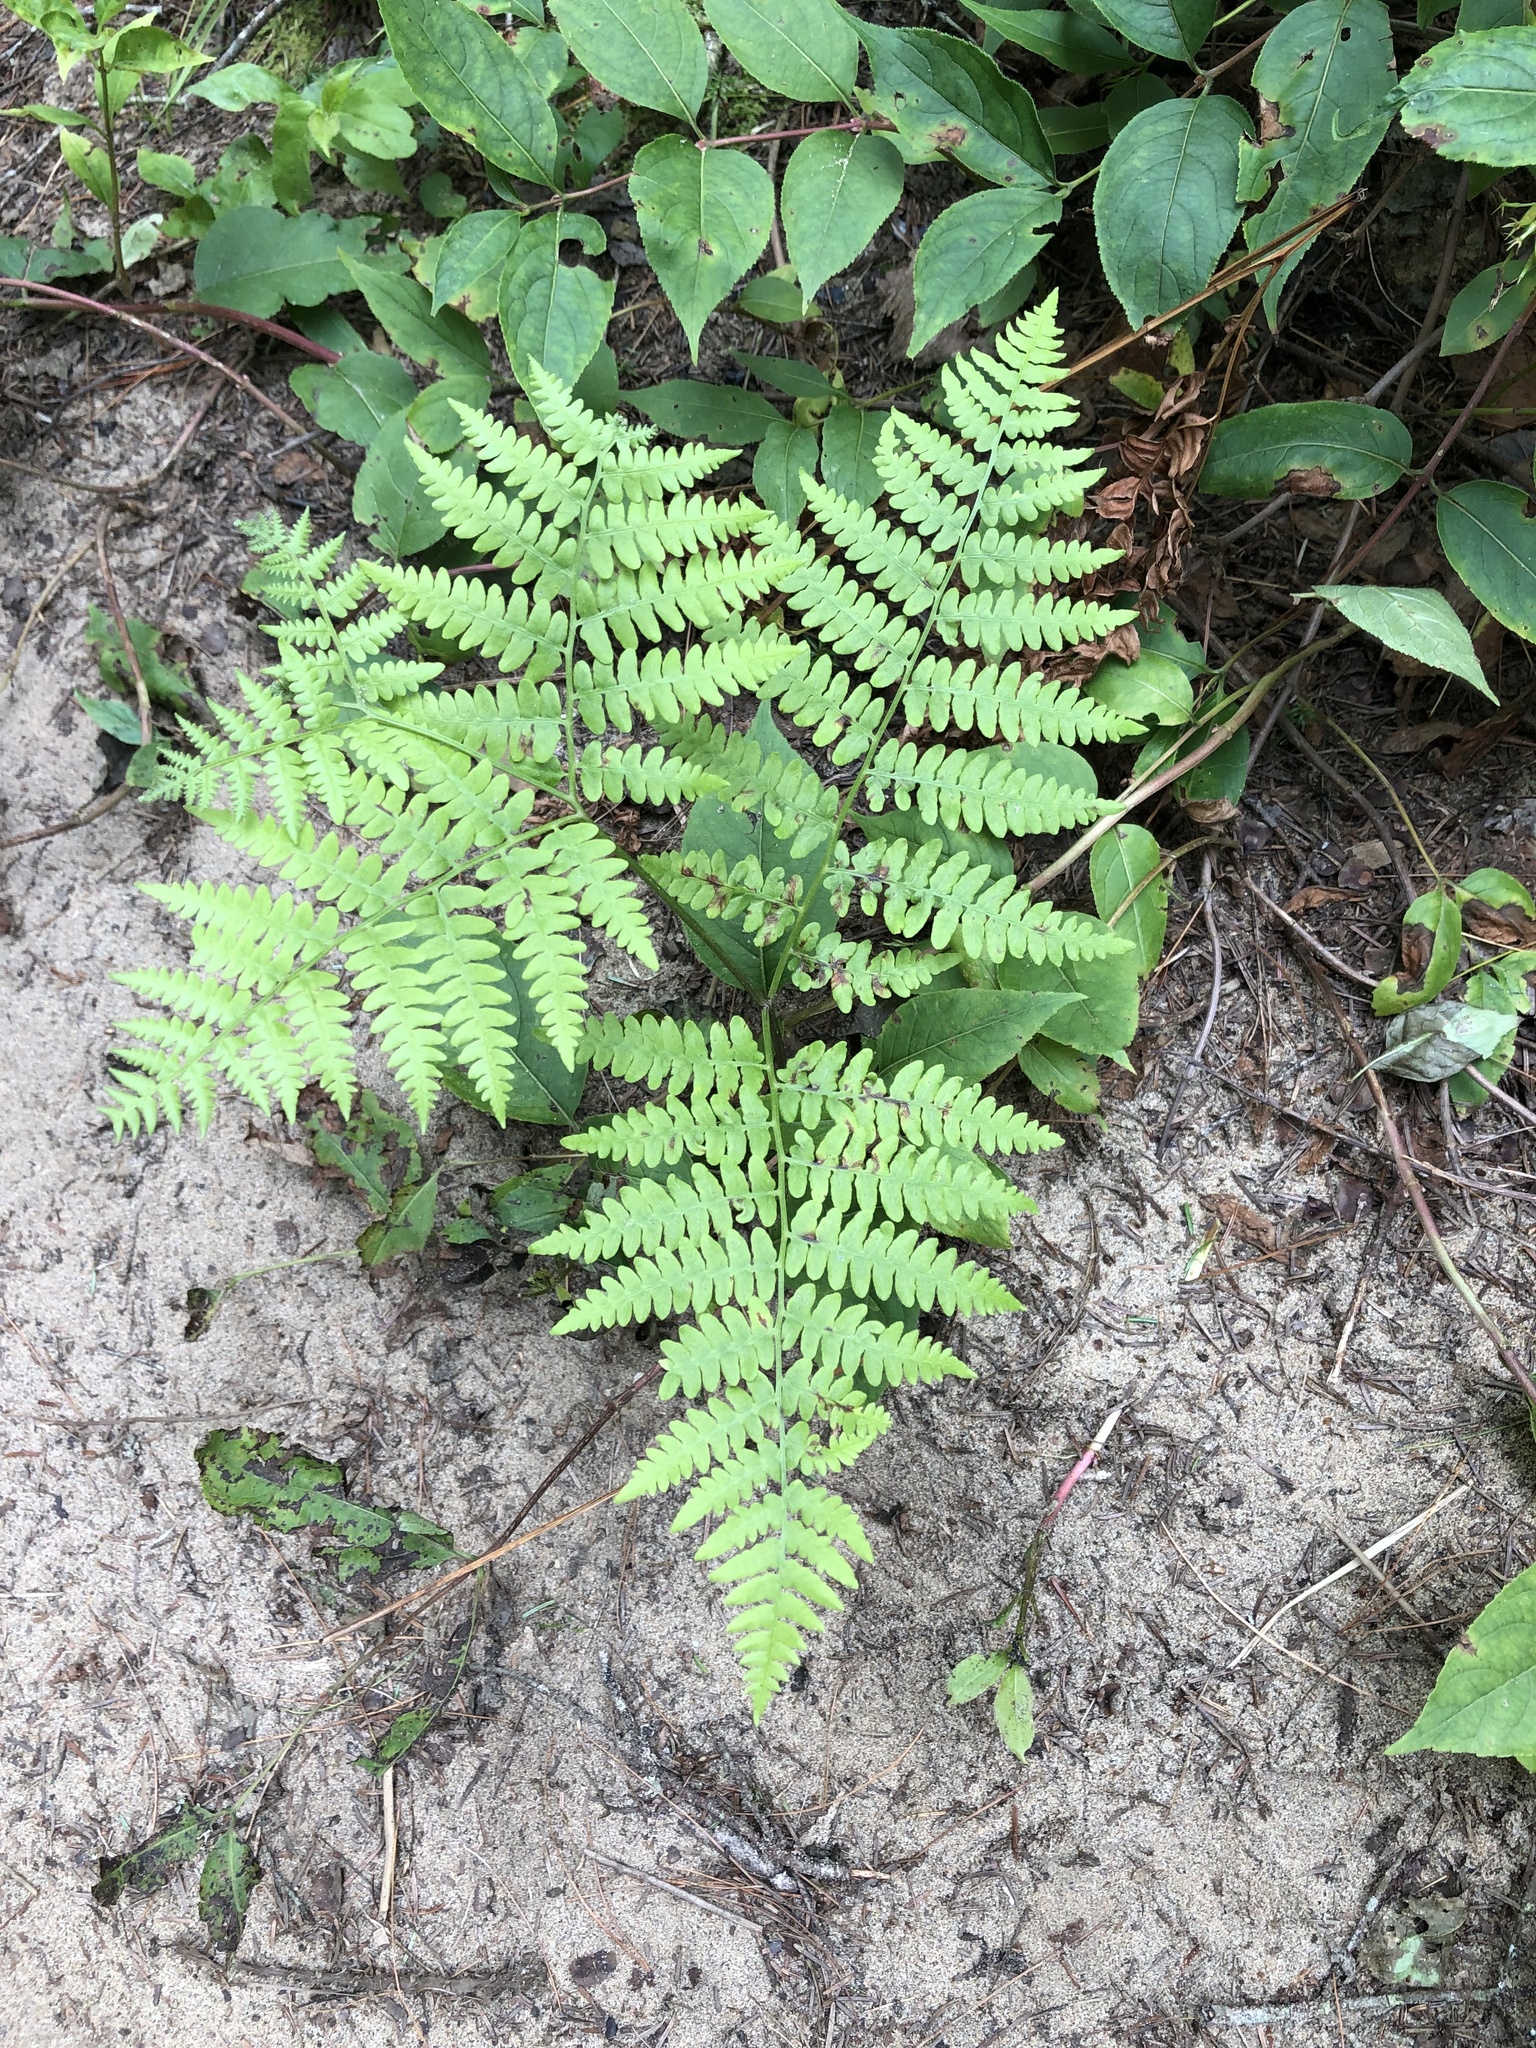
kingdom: Plantae
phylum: Tracheophyta
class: Polypodiopsida
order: Polypodiales
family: Dennstaedtiaceae
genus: Pteridium
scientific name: Pteridium aquilinum
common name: Bracken
